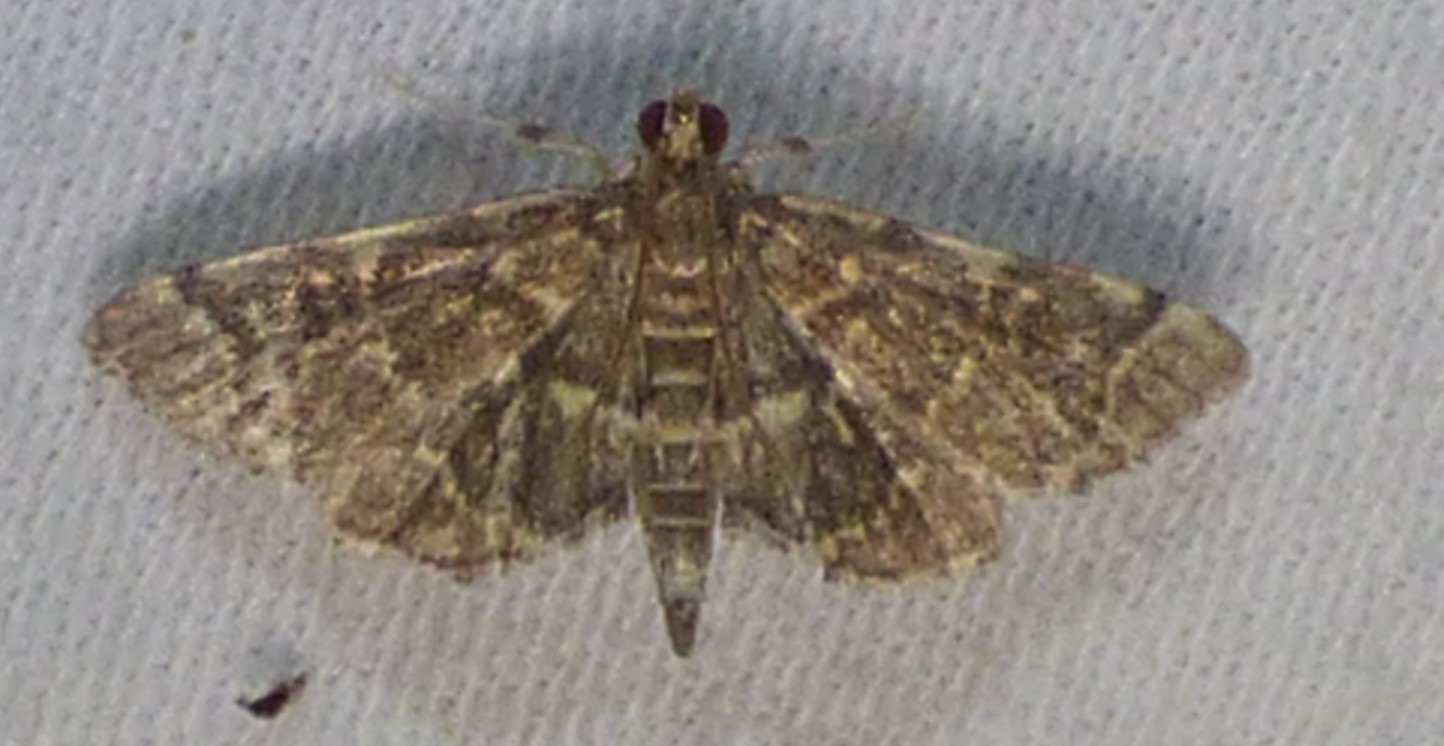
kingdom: Animalia
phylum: Arthropoda
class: Insecta
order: Lepidoptera
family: Crambidae
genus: Anageshna
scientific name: Anageshna primordialis
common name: Yellow-spotted webworm moth
